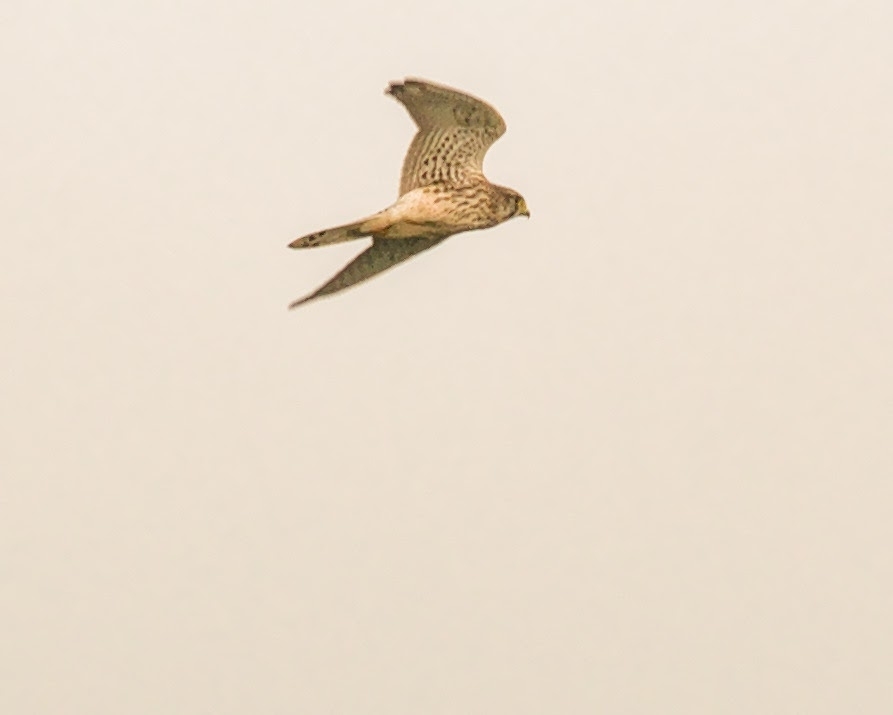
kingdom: Animalia
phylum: Chordata
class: Aves
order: Falconiformes
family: Falconidae
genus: Falco
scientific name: Falco tinnunculus
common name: Common kestrel
